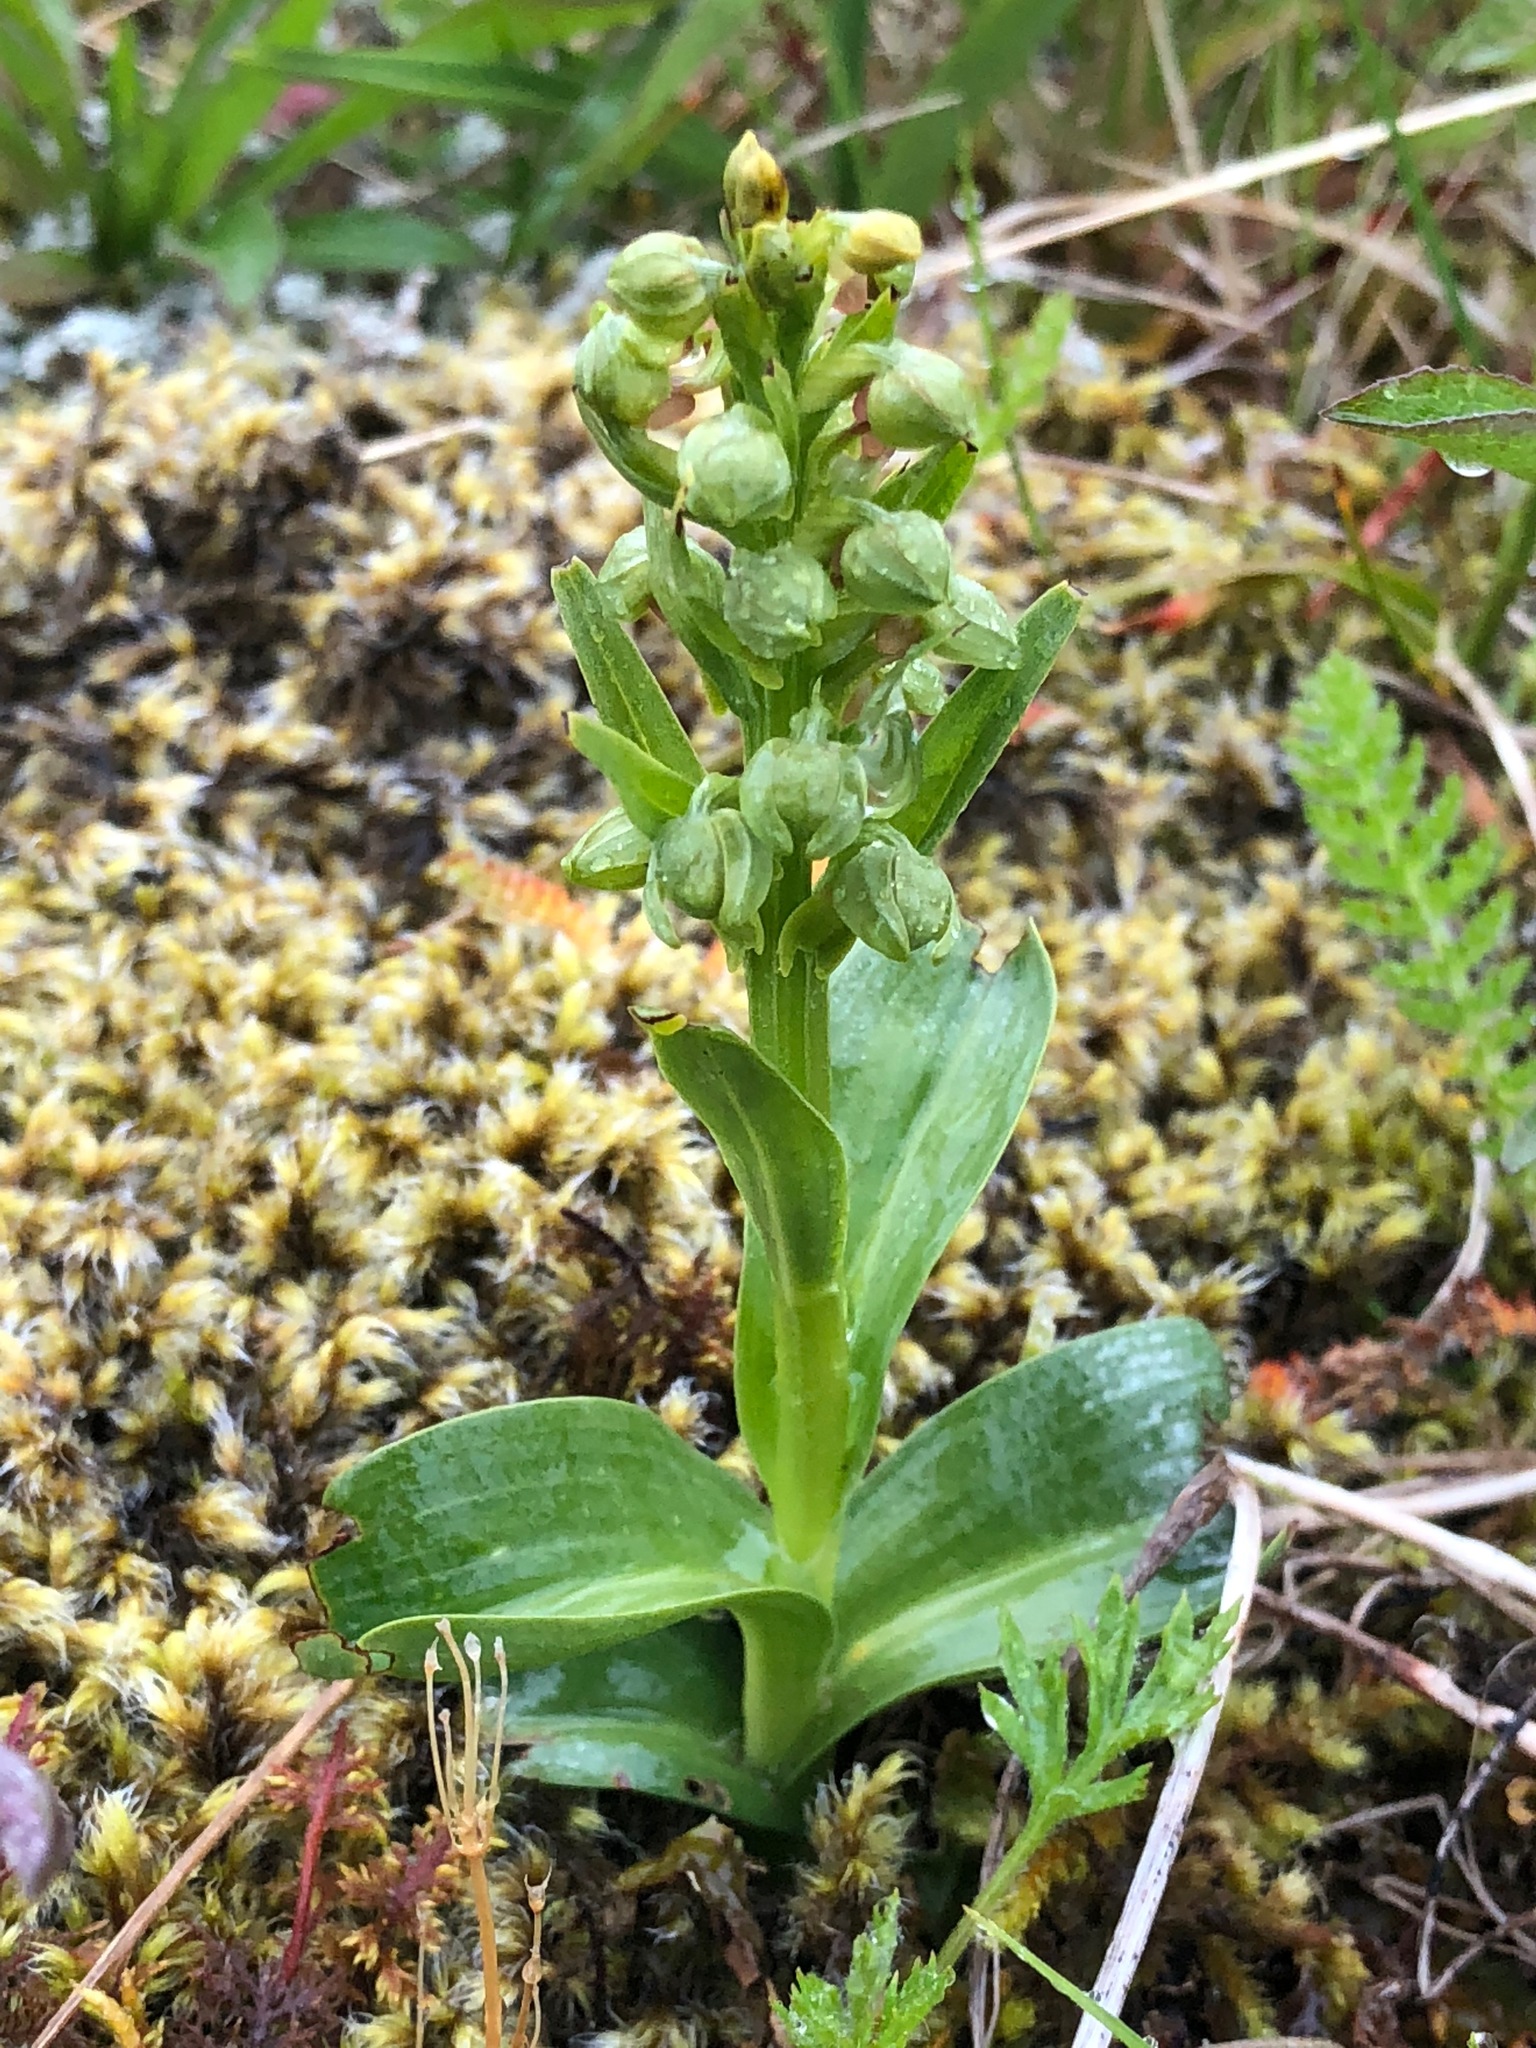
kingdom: Plantae
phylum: Tracheophyta
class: Liliopsida
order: Asparagales
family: Orchidaceae
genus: Dactylorhiza
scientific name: Dactylorhiza viridis
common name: Longbract frog orchid
